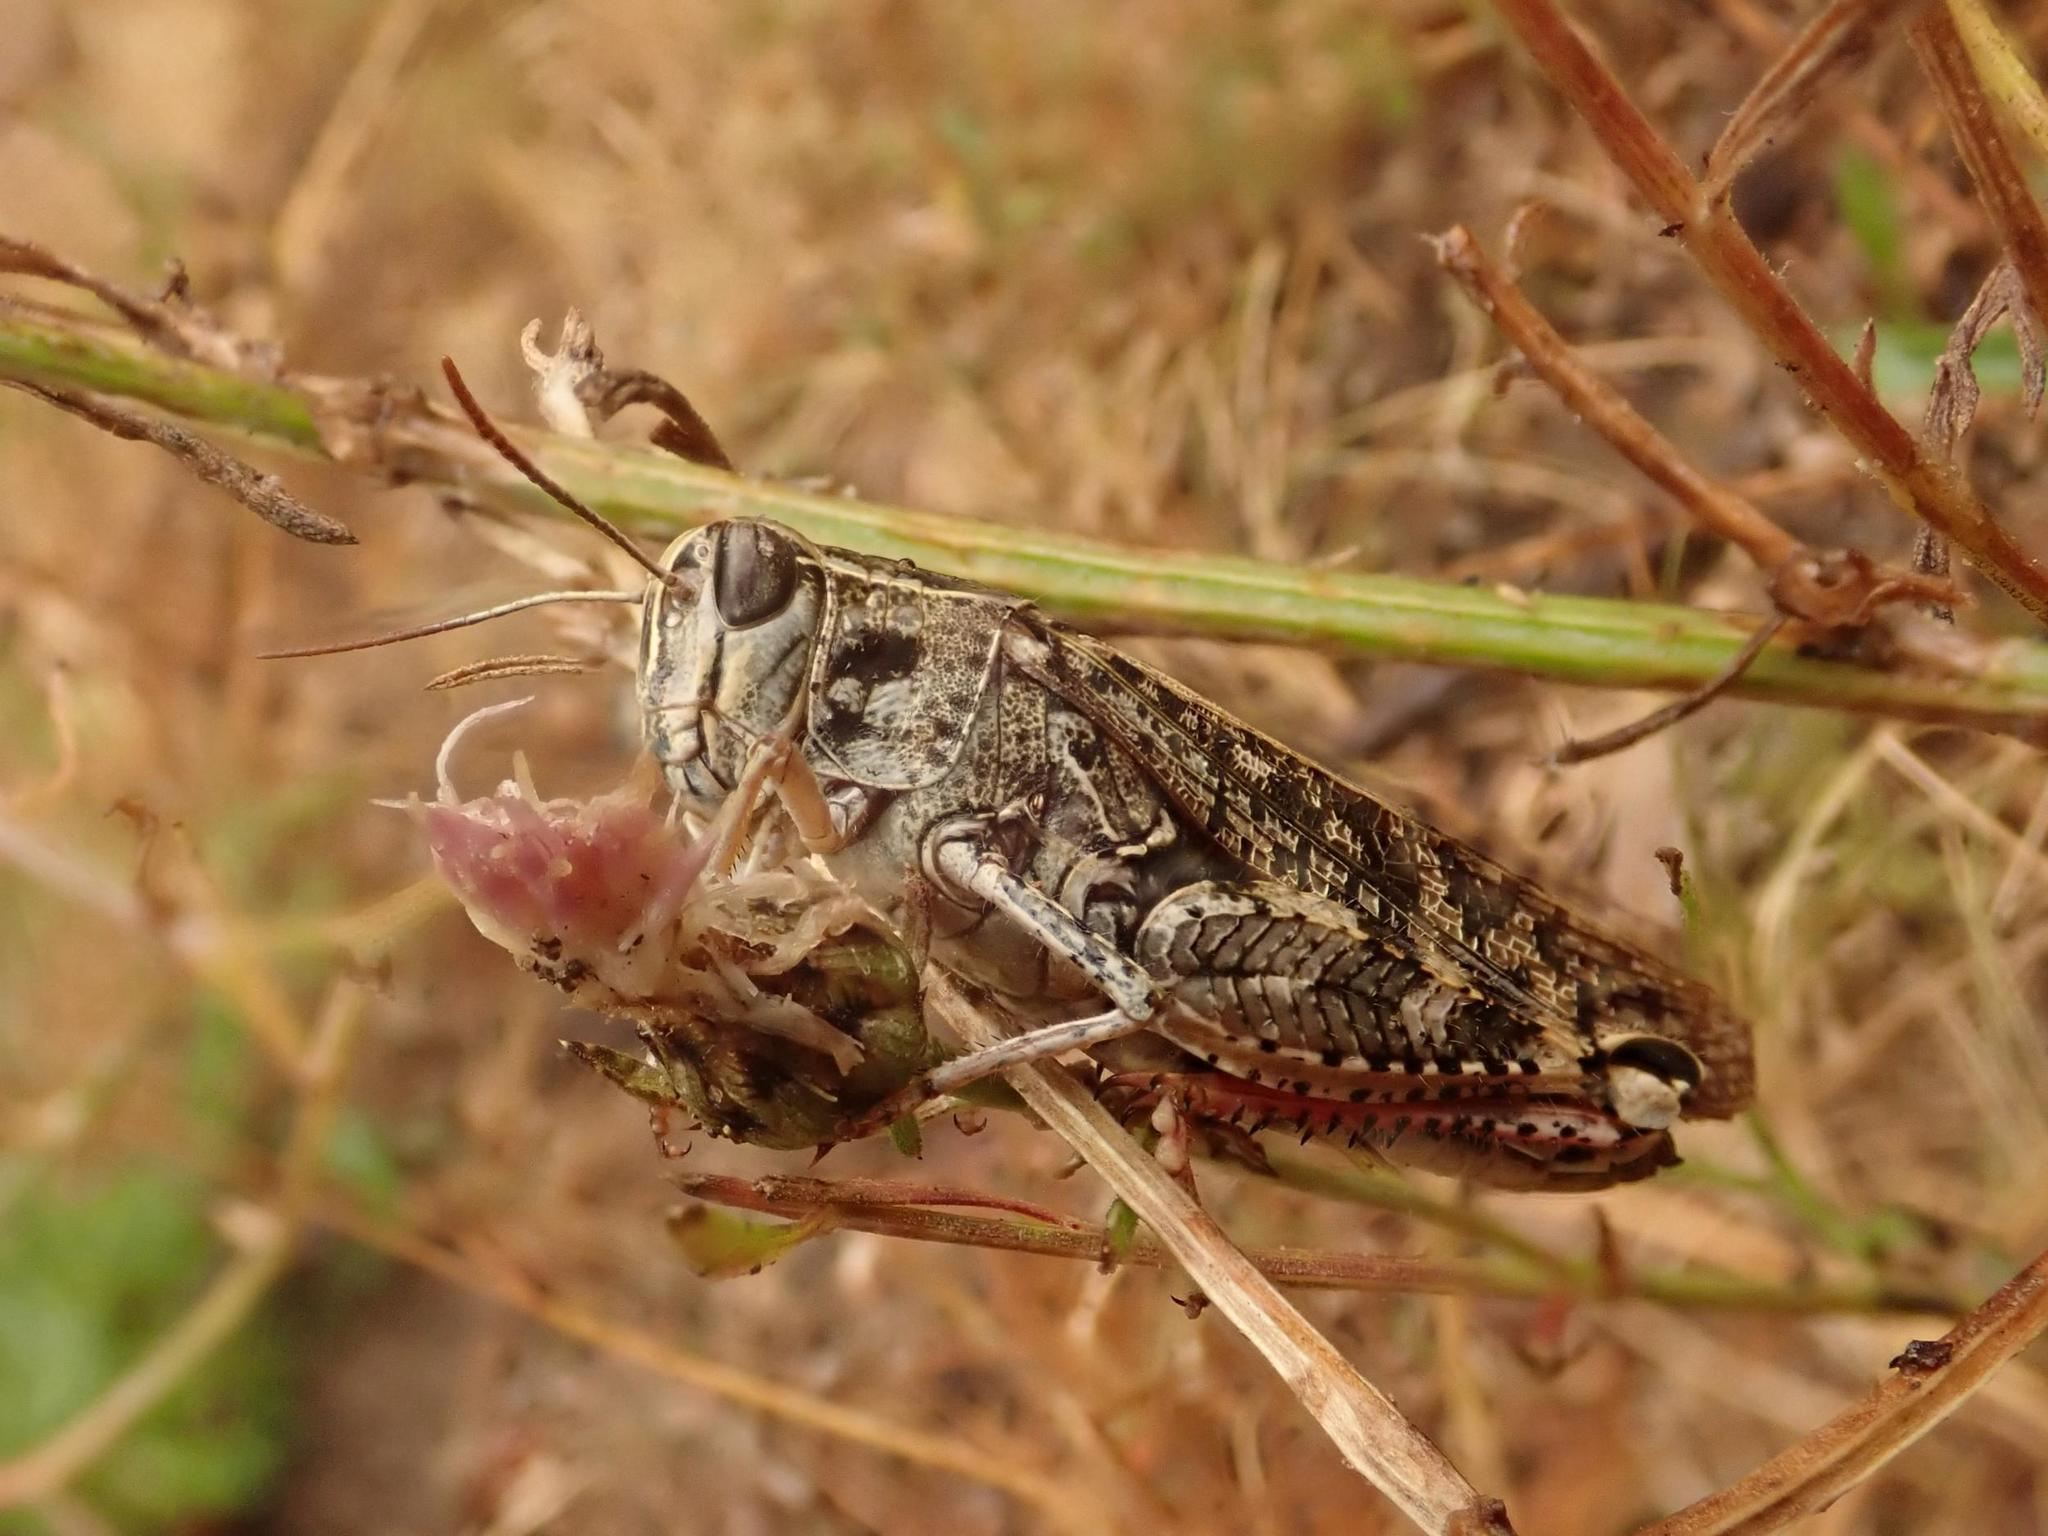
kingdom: Animalia
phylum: Arthropoda
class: Insecta
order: Orthoptera
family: Acrididae
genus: Calliptamus
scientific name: Calliptamus italicus
